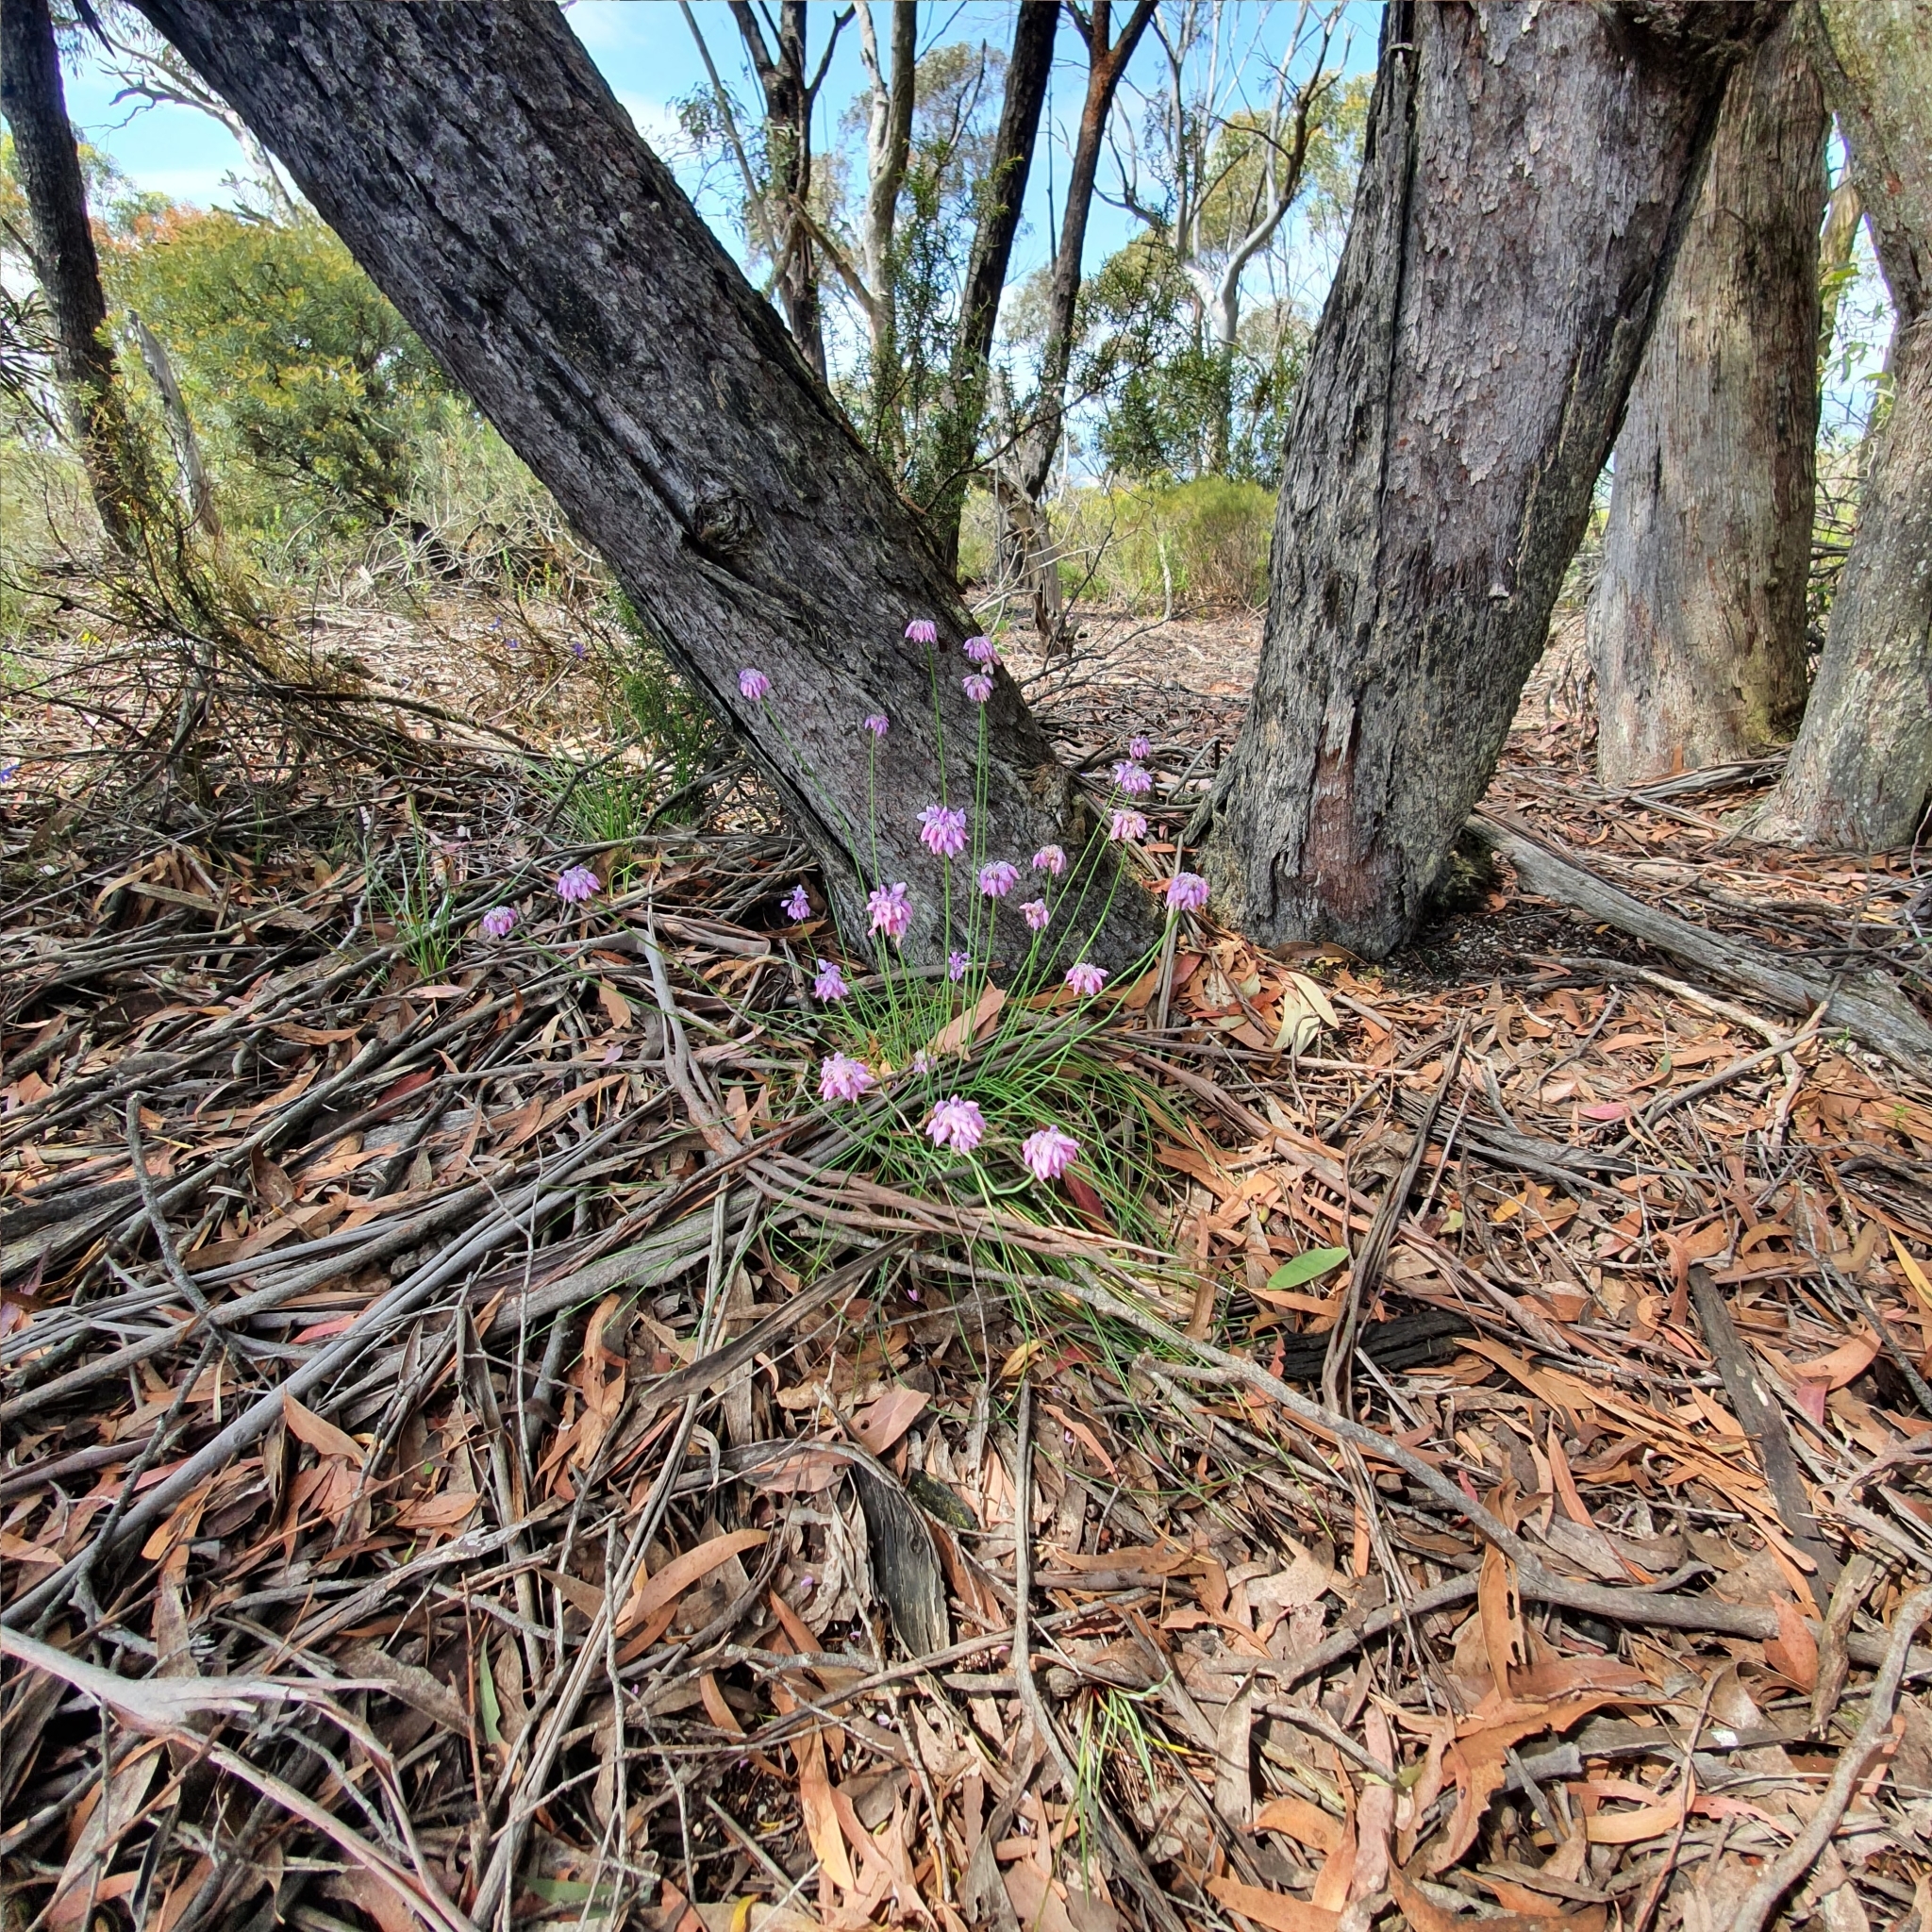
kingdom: Plantae
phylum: Tracheophyta
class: Liliopsida
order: Asparagales
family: Asparagaceae
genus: Sowerbaea
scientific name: Sowerbaea juncea
